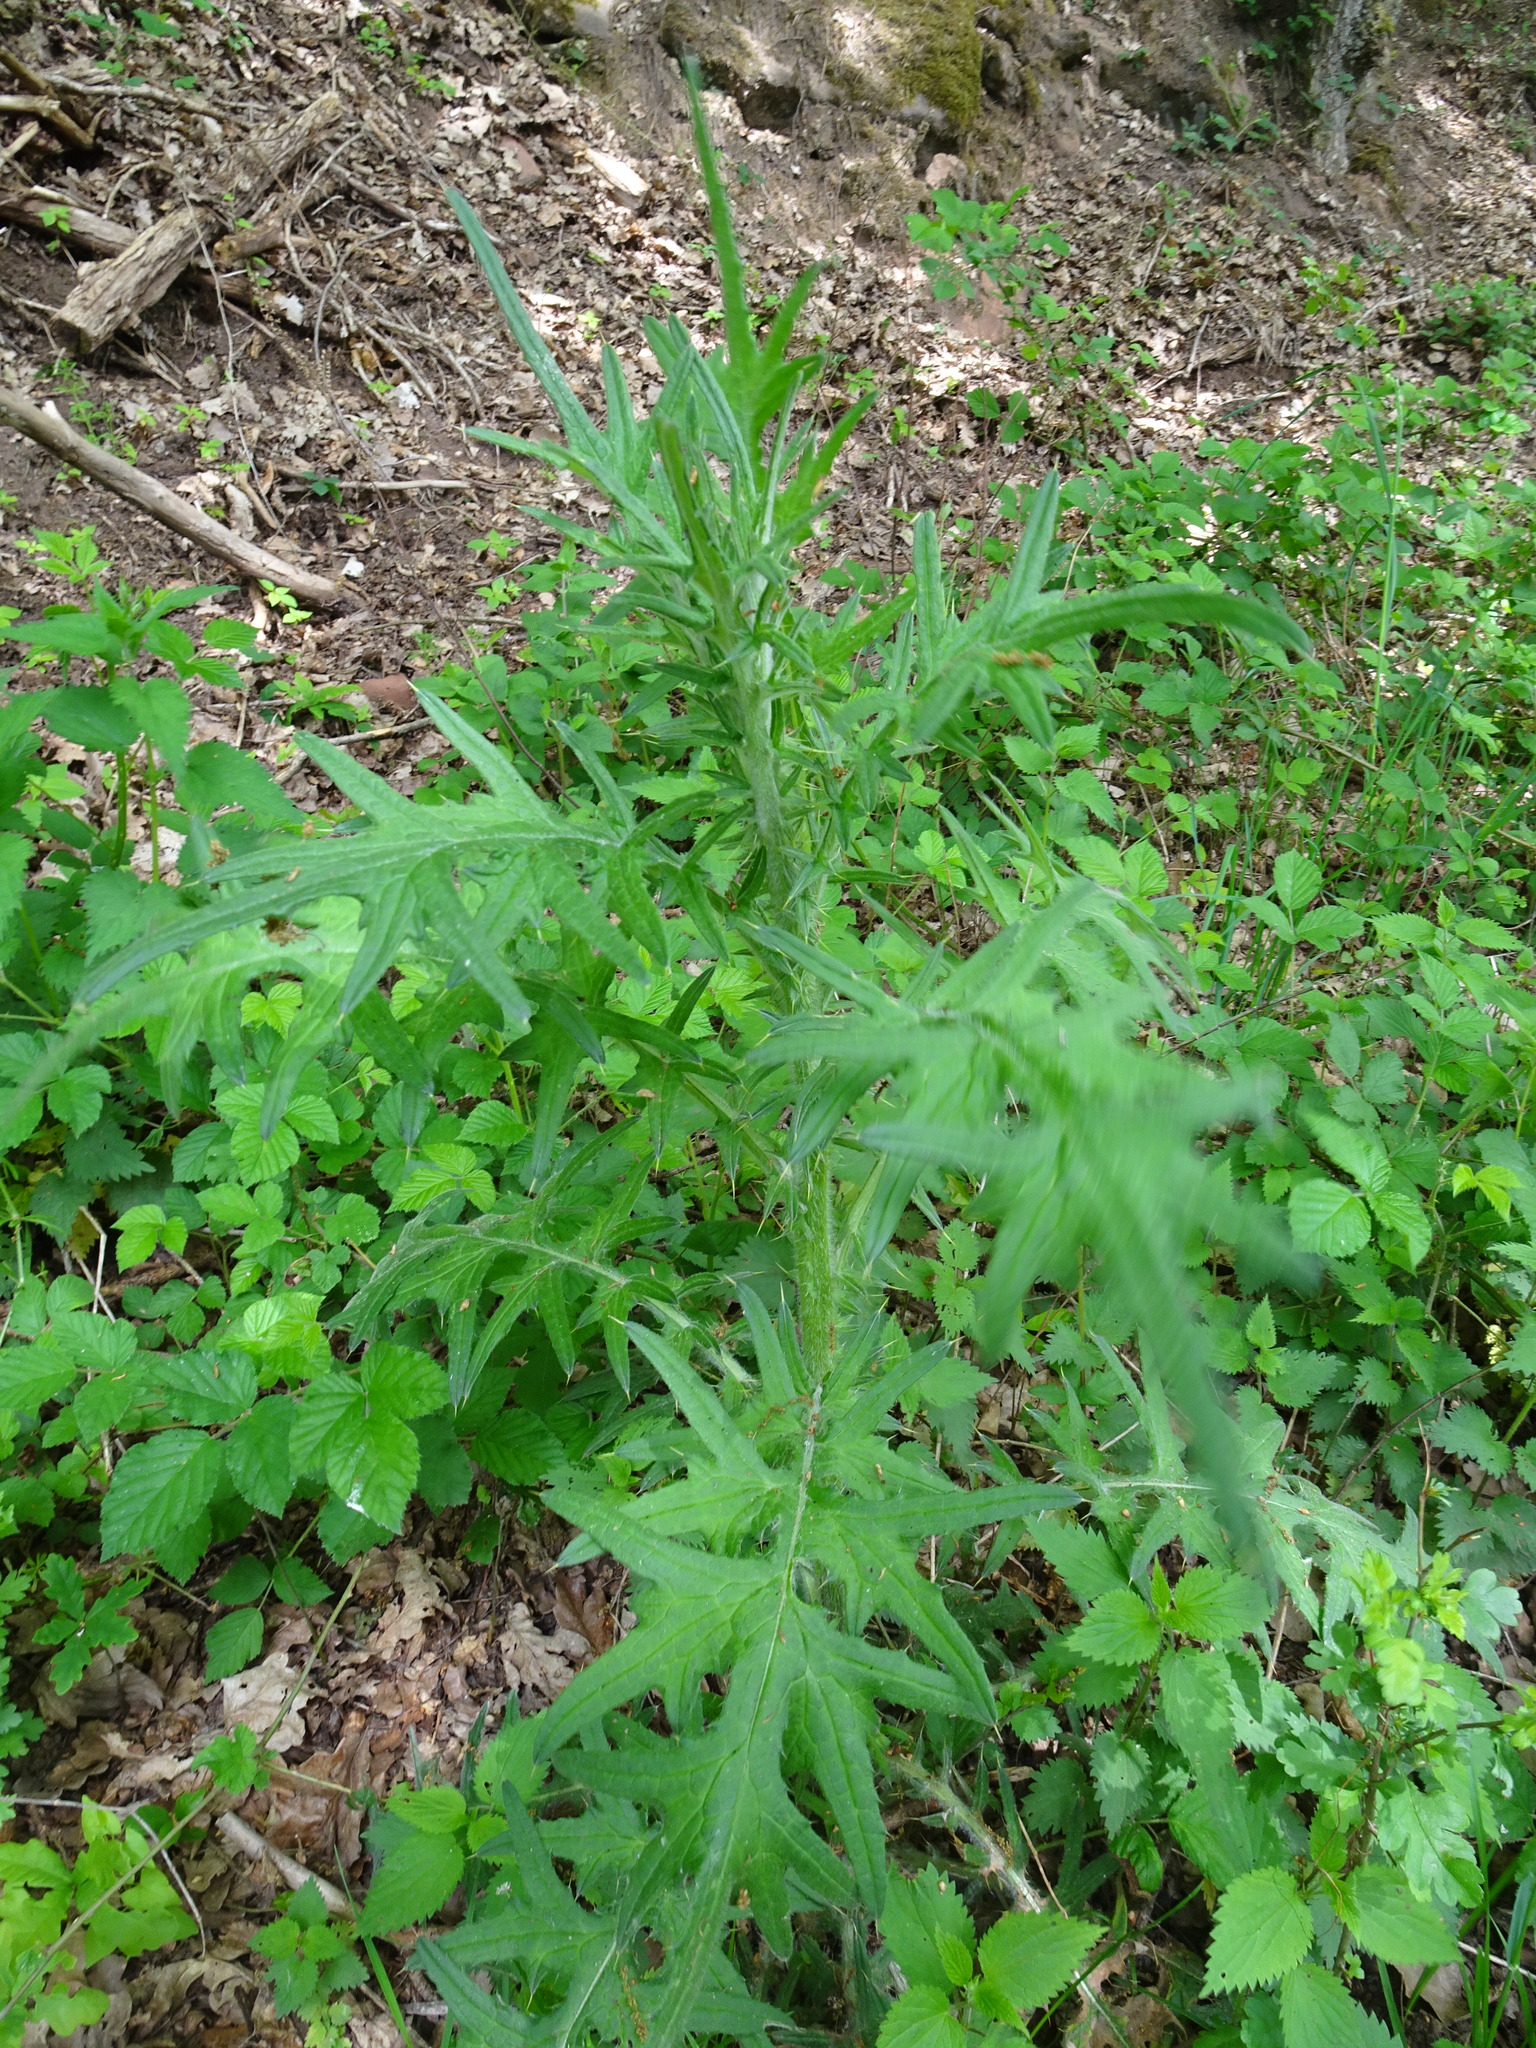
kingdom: Plantae
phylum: Tracheophyta
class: Magnoliopsida
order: Asterales
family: Asteraceae
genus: Cirsium
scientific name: Cirsium vulgare
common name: Bull thistle
